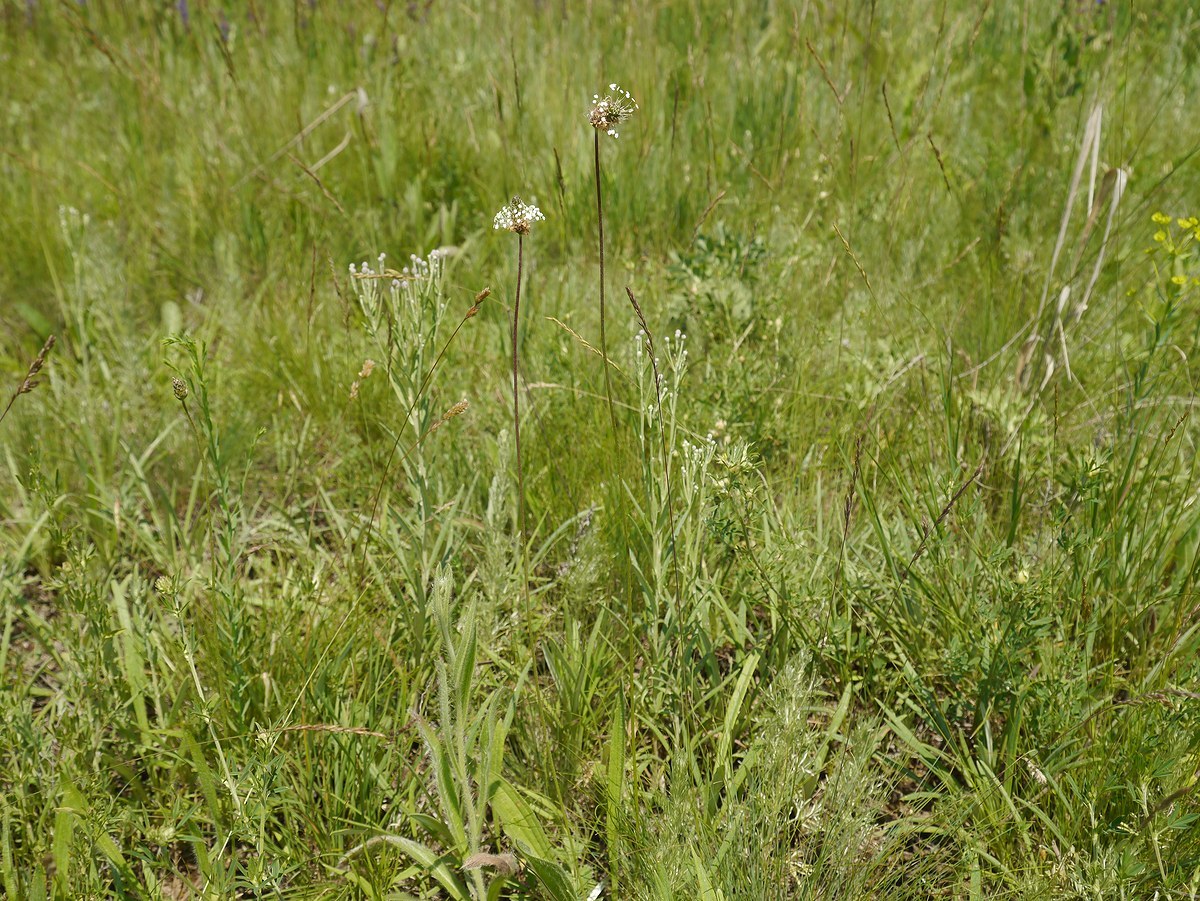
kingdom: Plantae
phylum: Tracheophyta
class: Magnoliopsida
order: Lamiales
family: Plantaginaceae
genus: Plantago
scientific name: Plantago lanceolata
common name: Ribwort plantain
